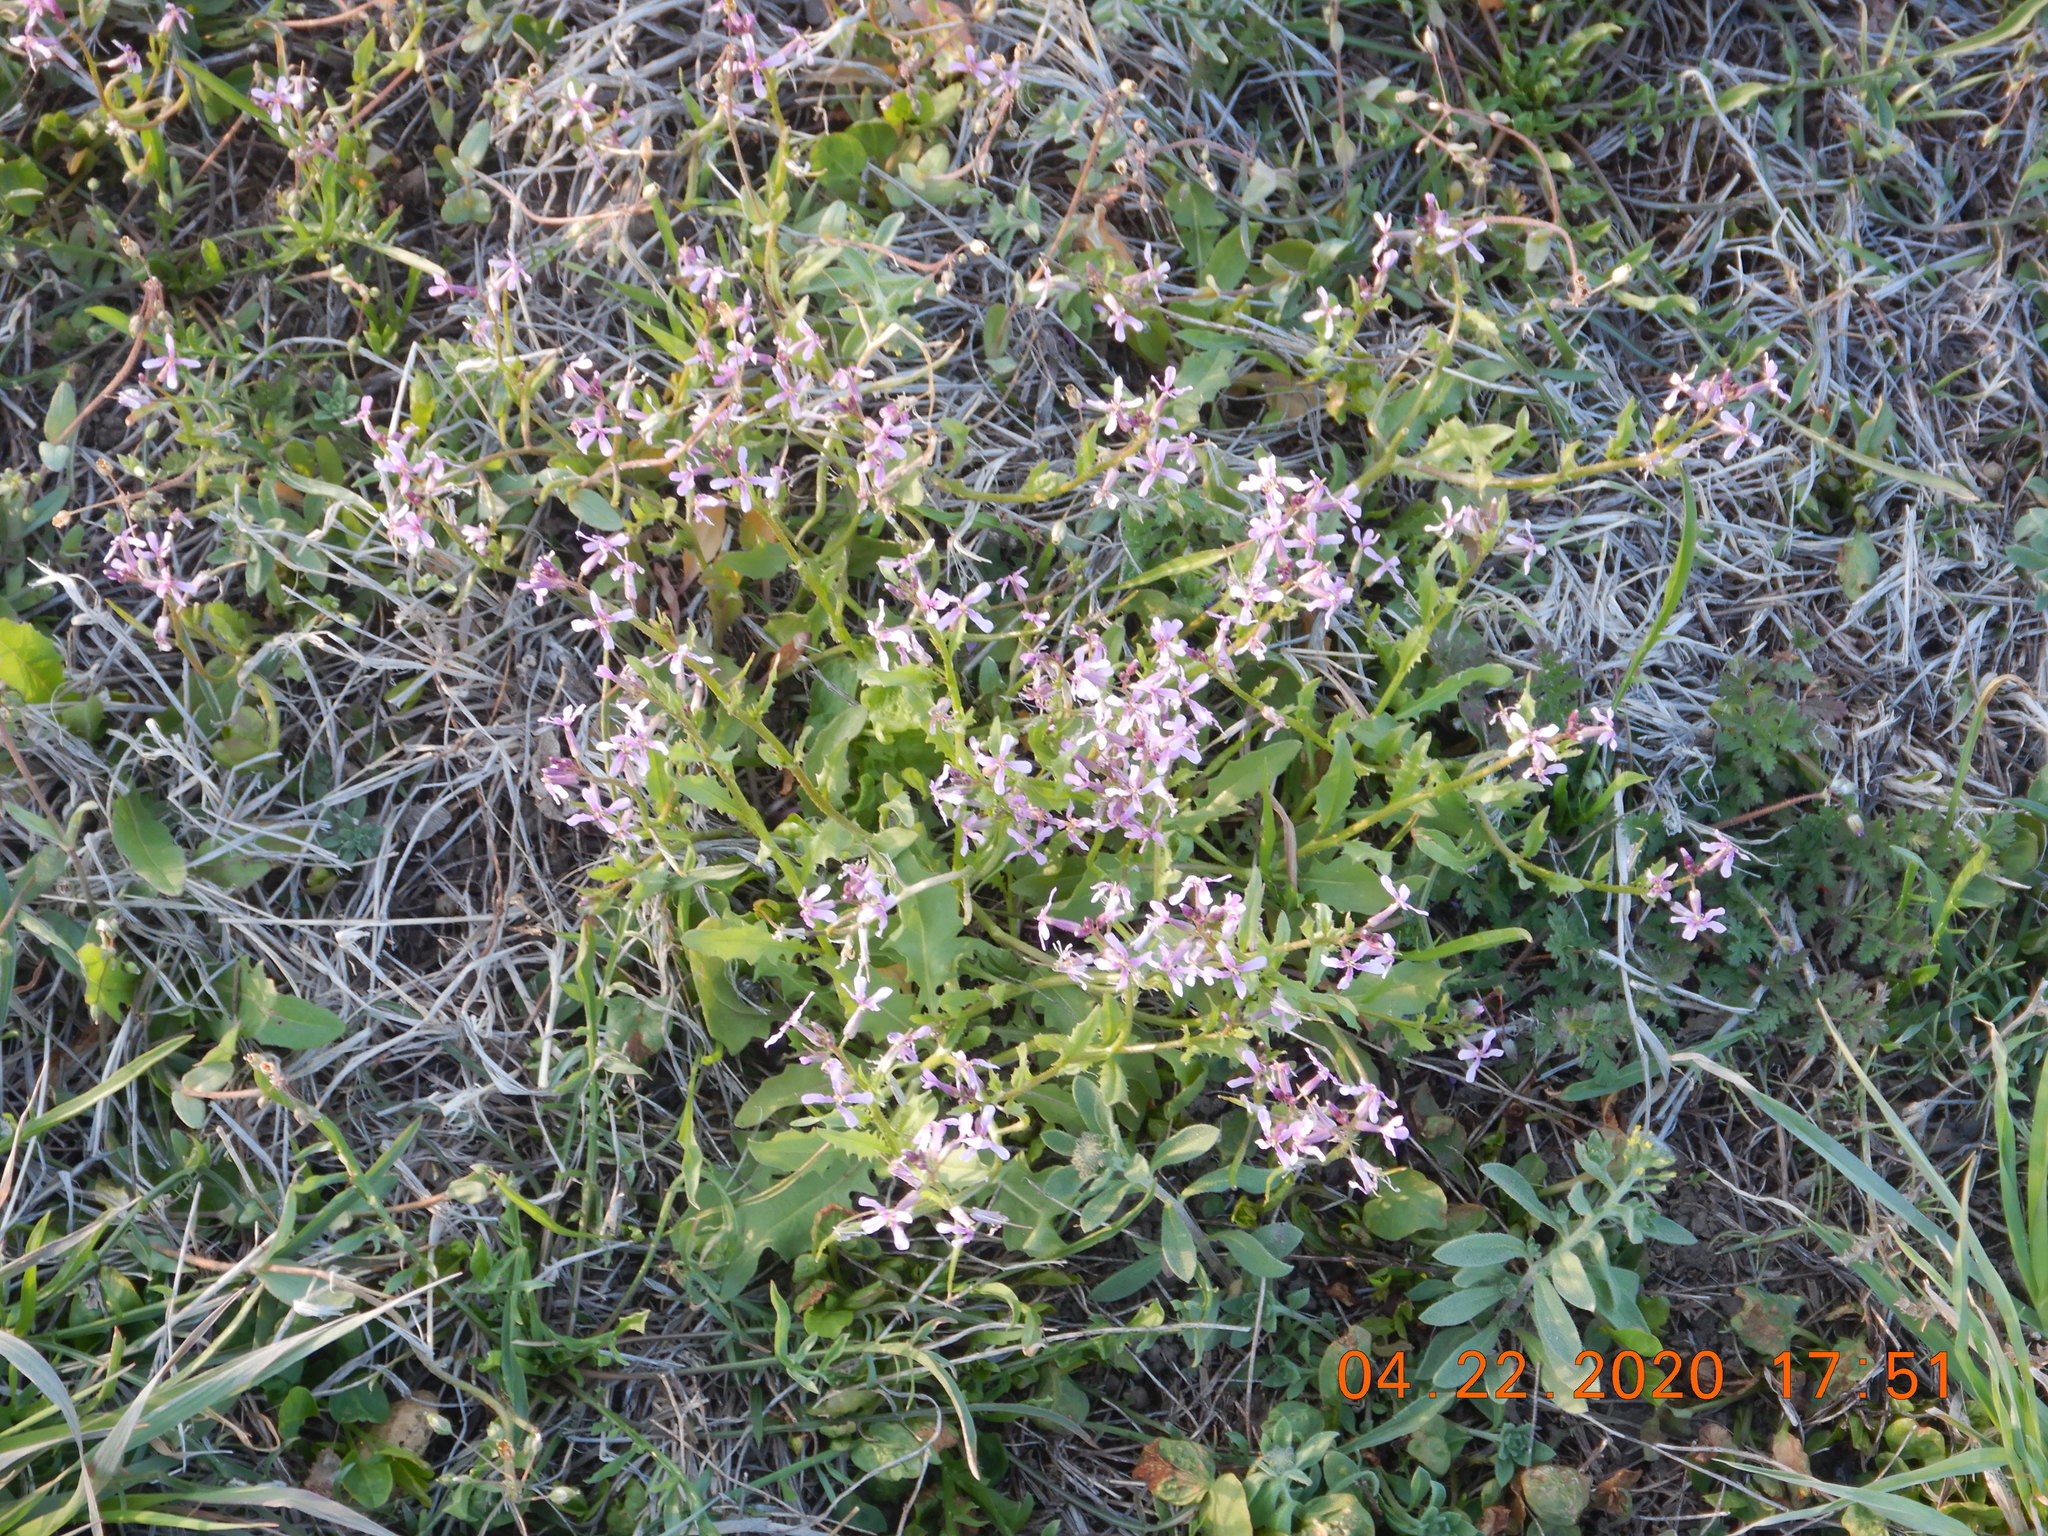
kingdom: Plantae
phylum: Tracheophyta
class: Magnoliopsida
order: Brassicales
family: Brassicaceae
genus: Chorispora
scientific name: Chorispora tenella
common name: Crossflower
